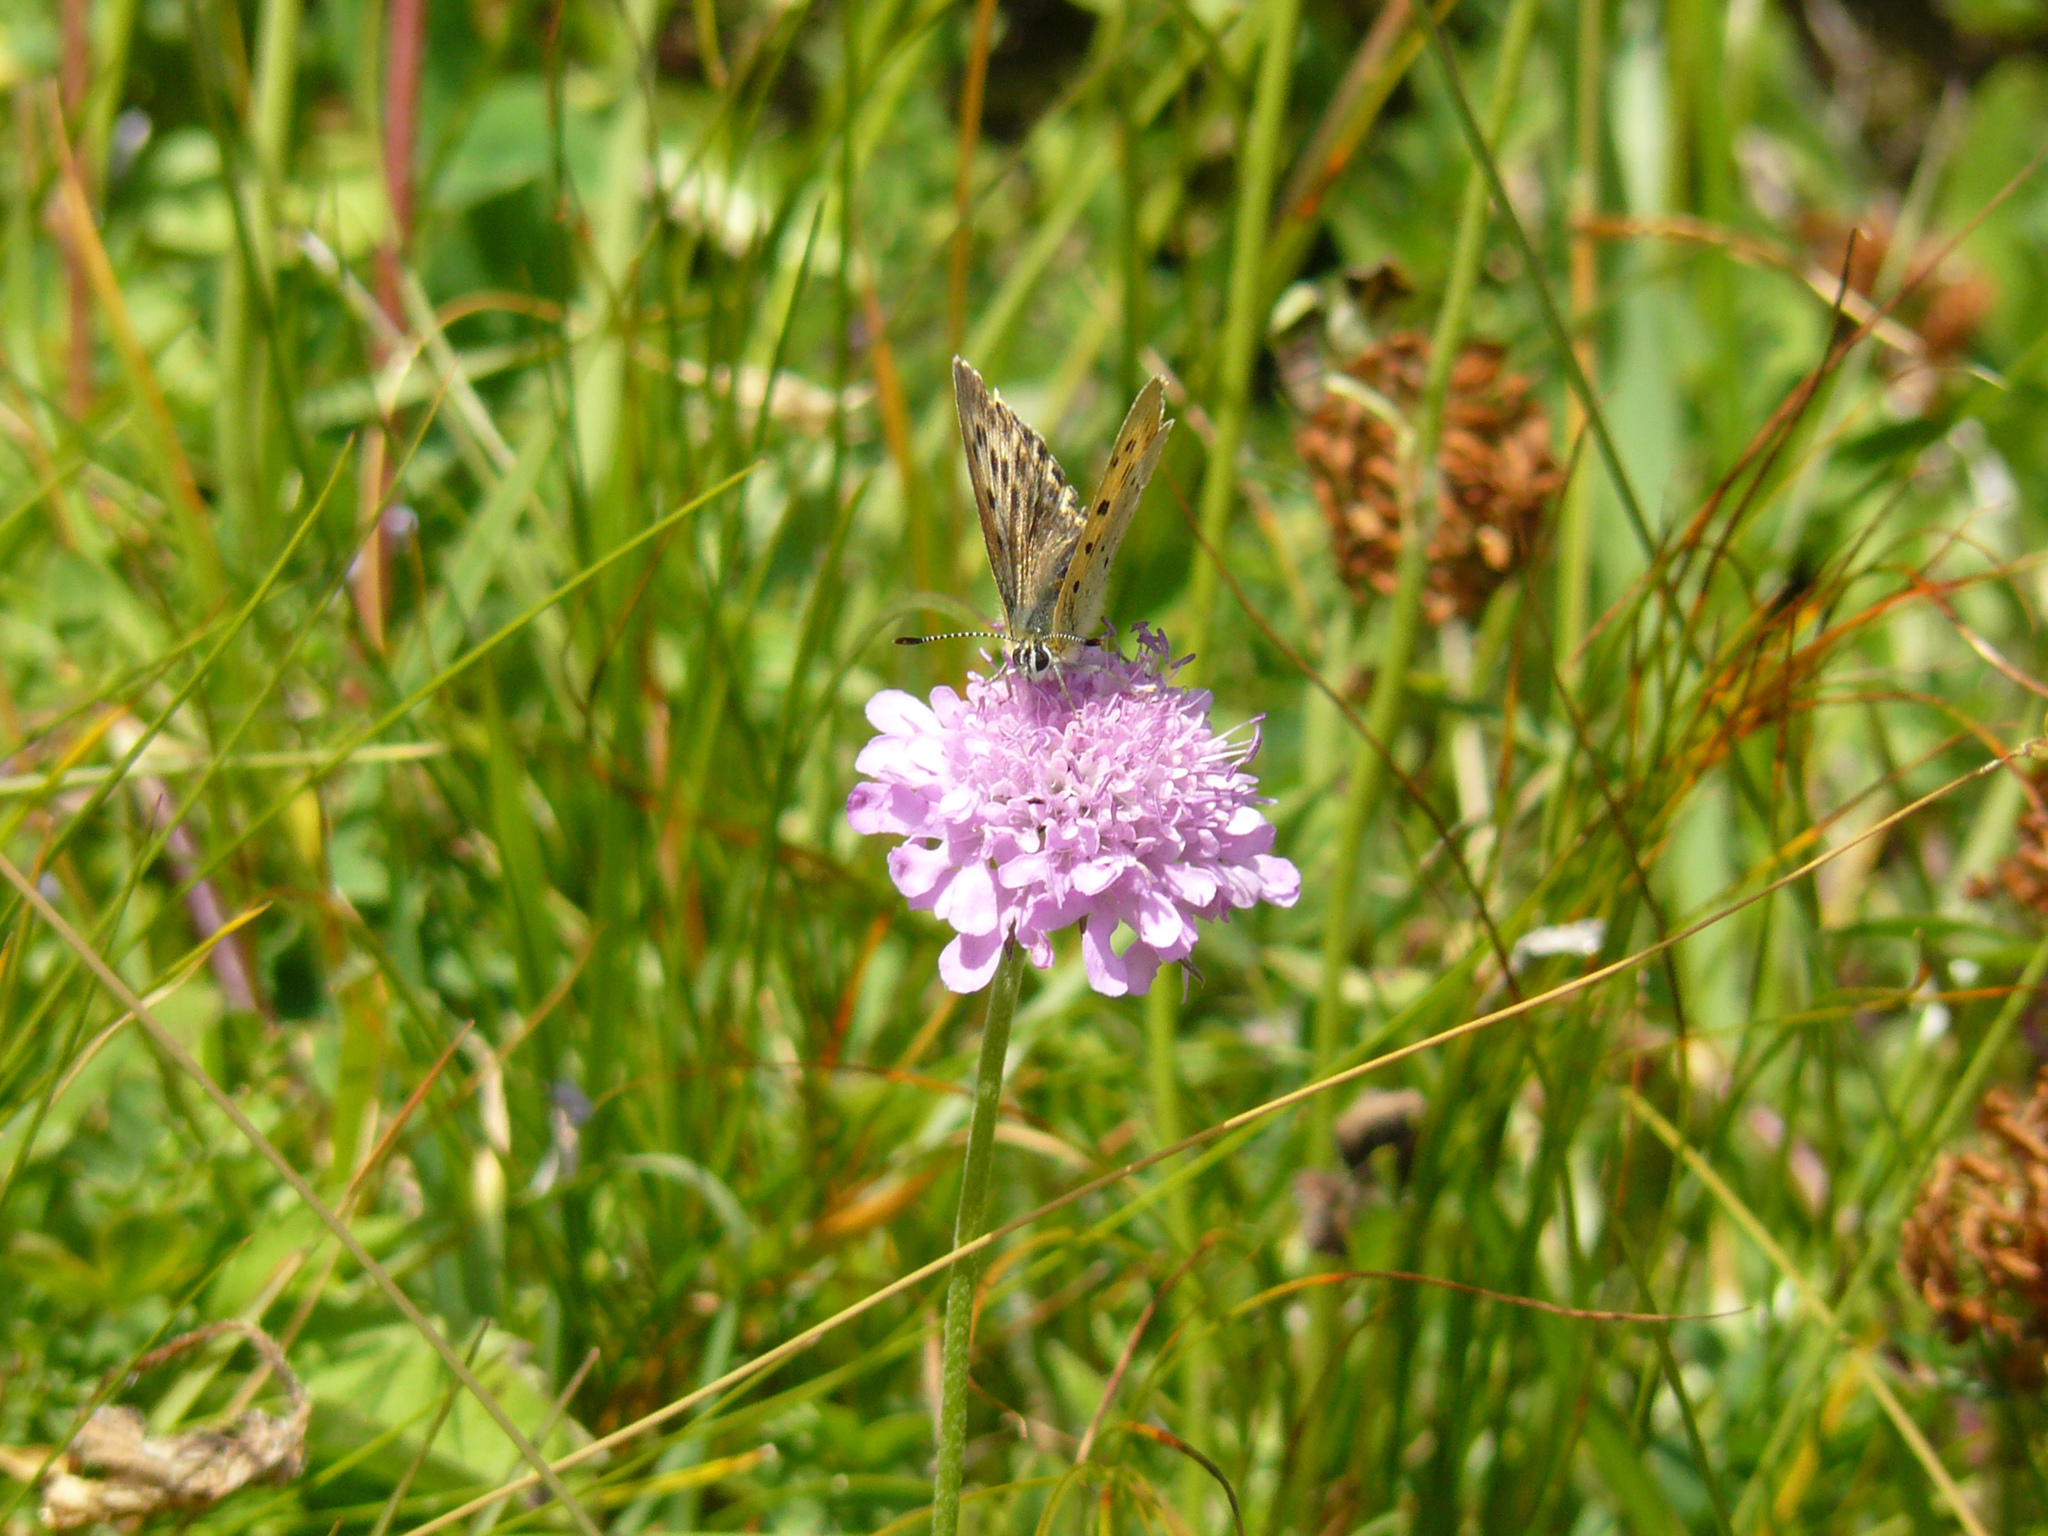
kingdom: Animalia
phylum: Arthropoda
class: Insecta
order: Lepidoptera
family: Lycaenidae
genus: Lycaena
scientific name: Lycaena virgaureae
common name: Scarce copper
